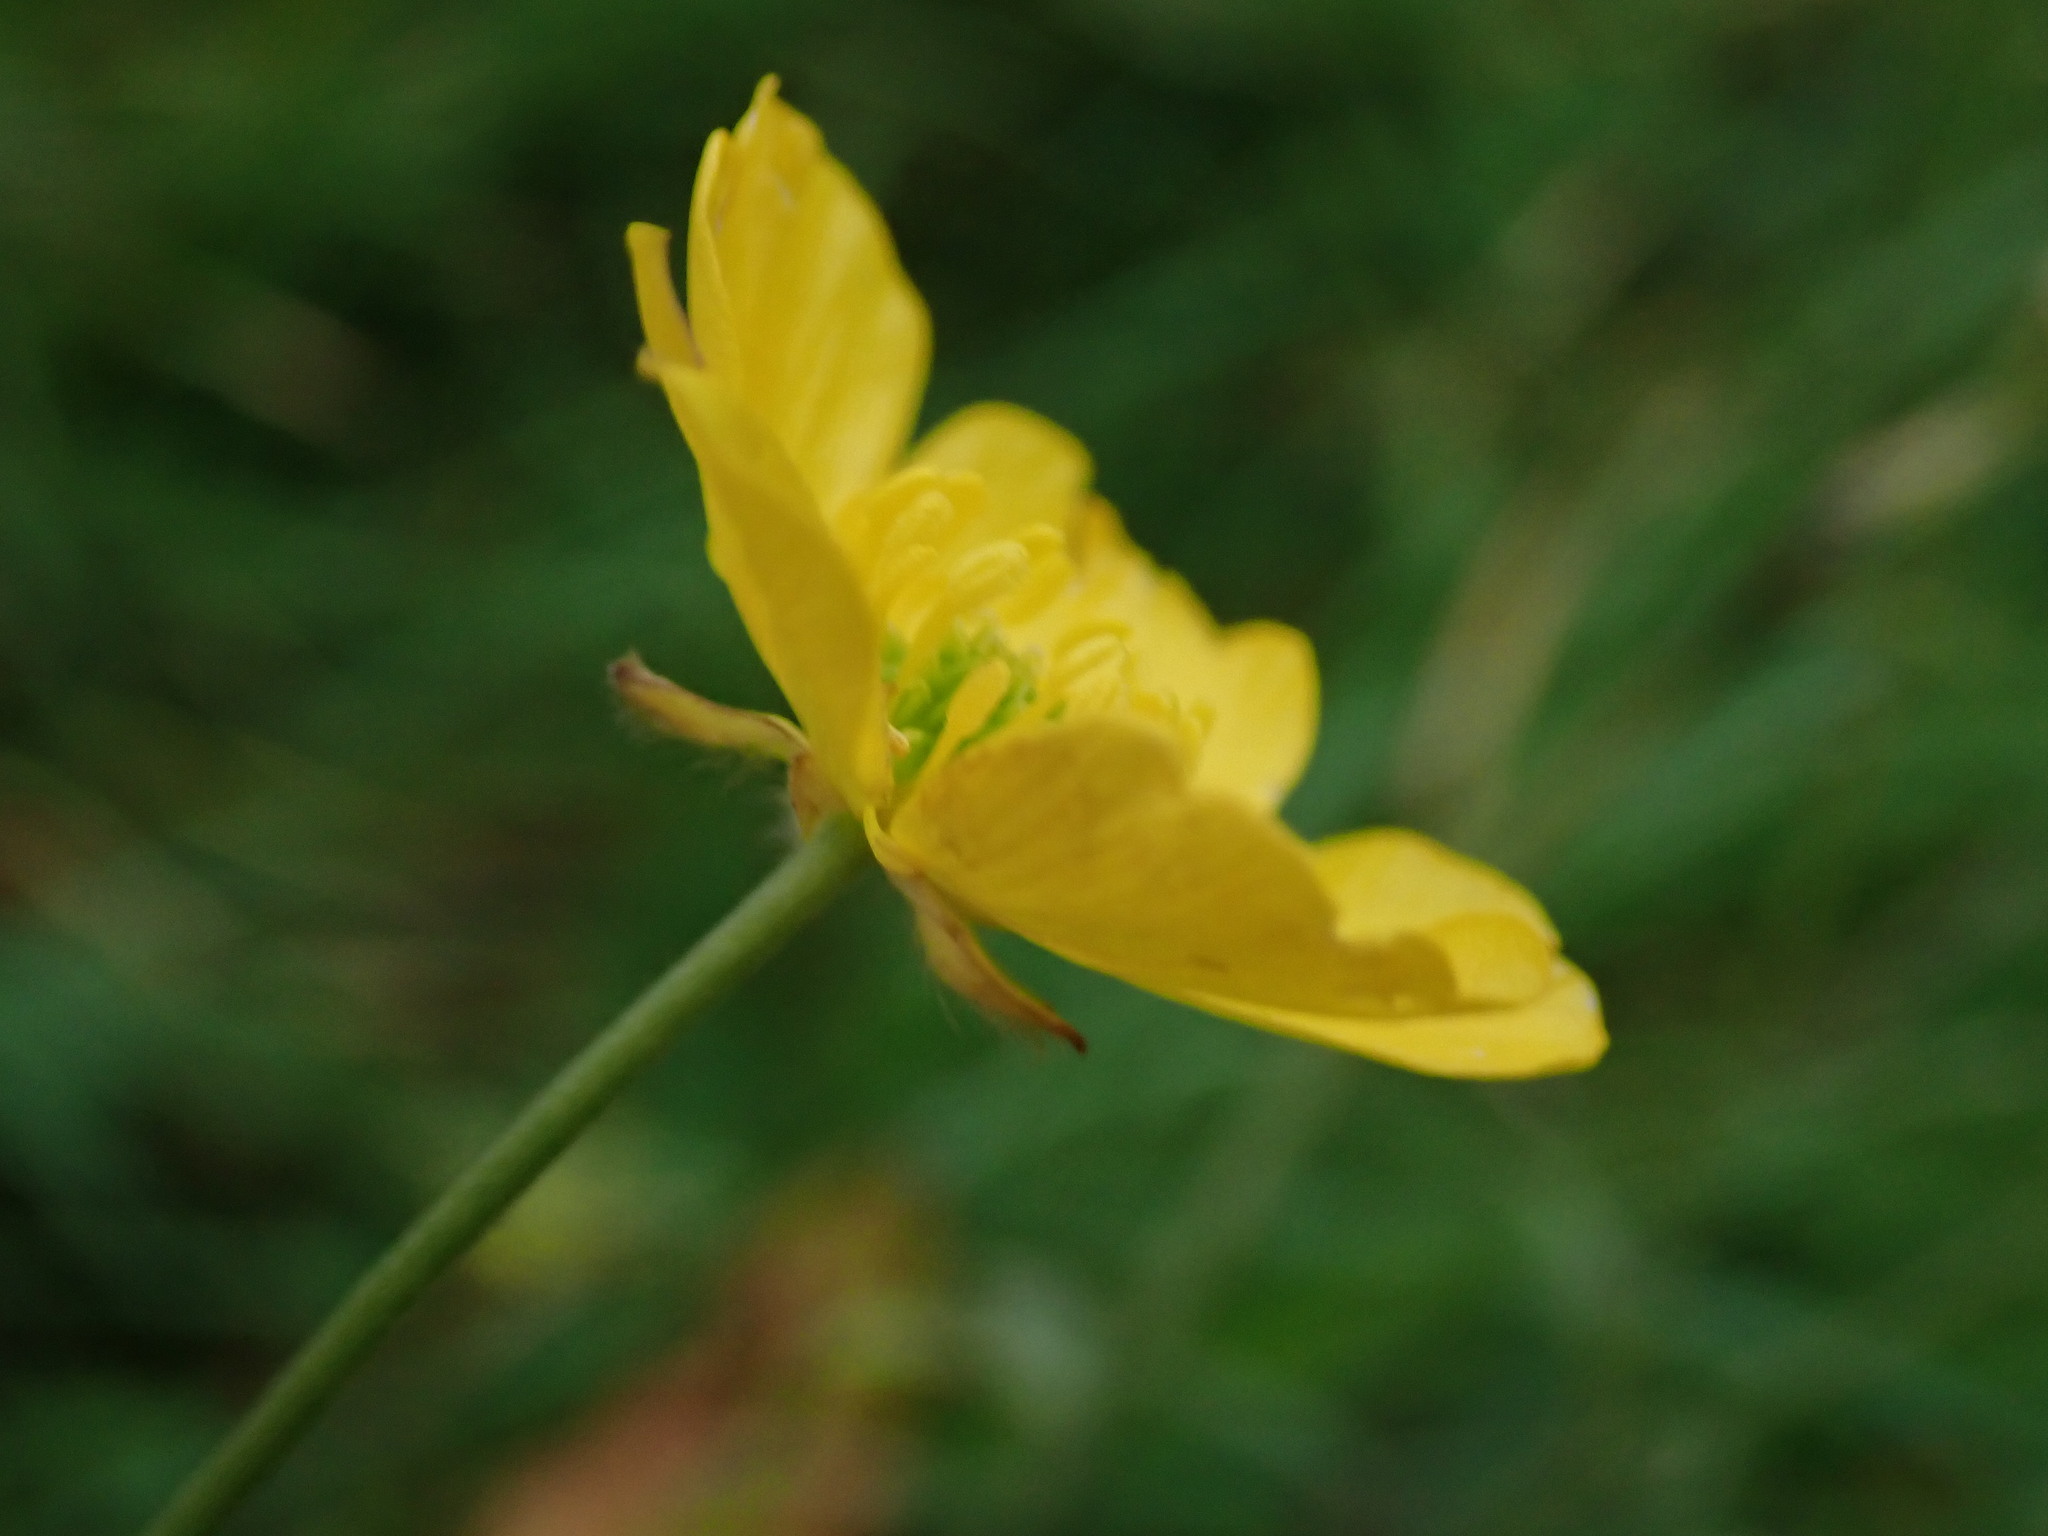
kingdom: Plantae
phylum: Tracheophyta
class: Magnoliopsida
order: Ranunculales
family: Ranunculaceae
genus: Ranunculus
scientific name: Ranunculus acris
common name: Meadow buttercup
